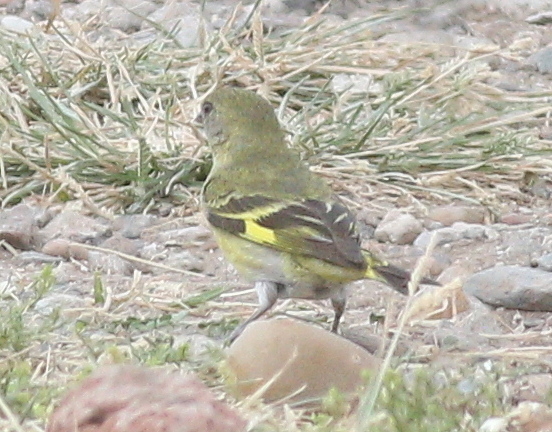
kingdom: Animalia
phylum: Chordata
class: Aves
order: Passeriformes
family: Fringillidae
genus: Spinus
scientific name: Spinus magellanicus
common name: Hooded siskin
